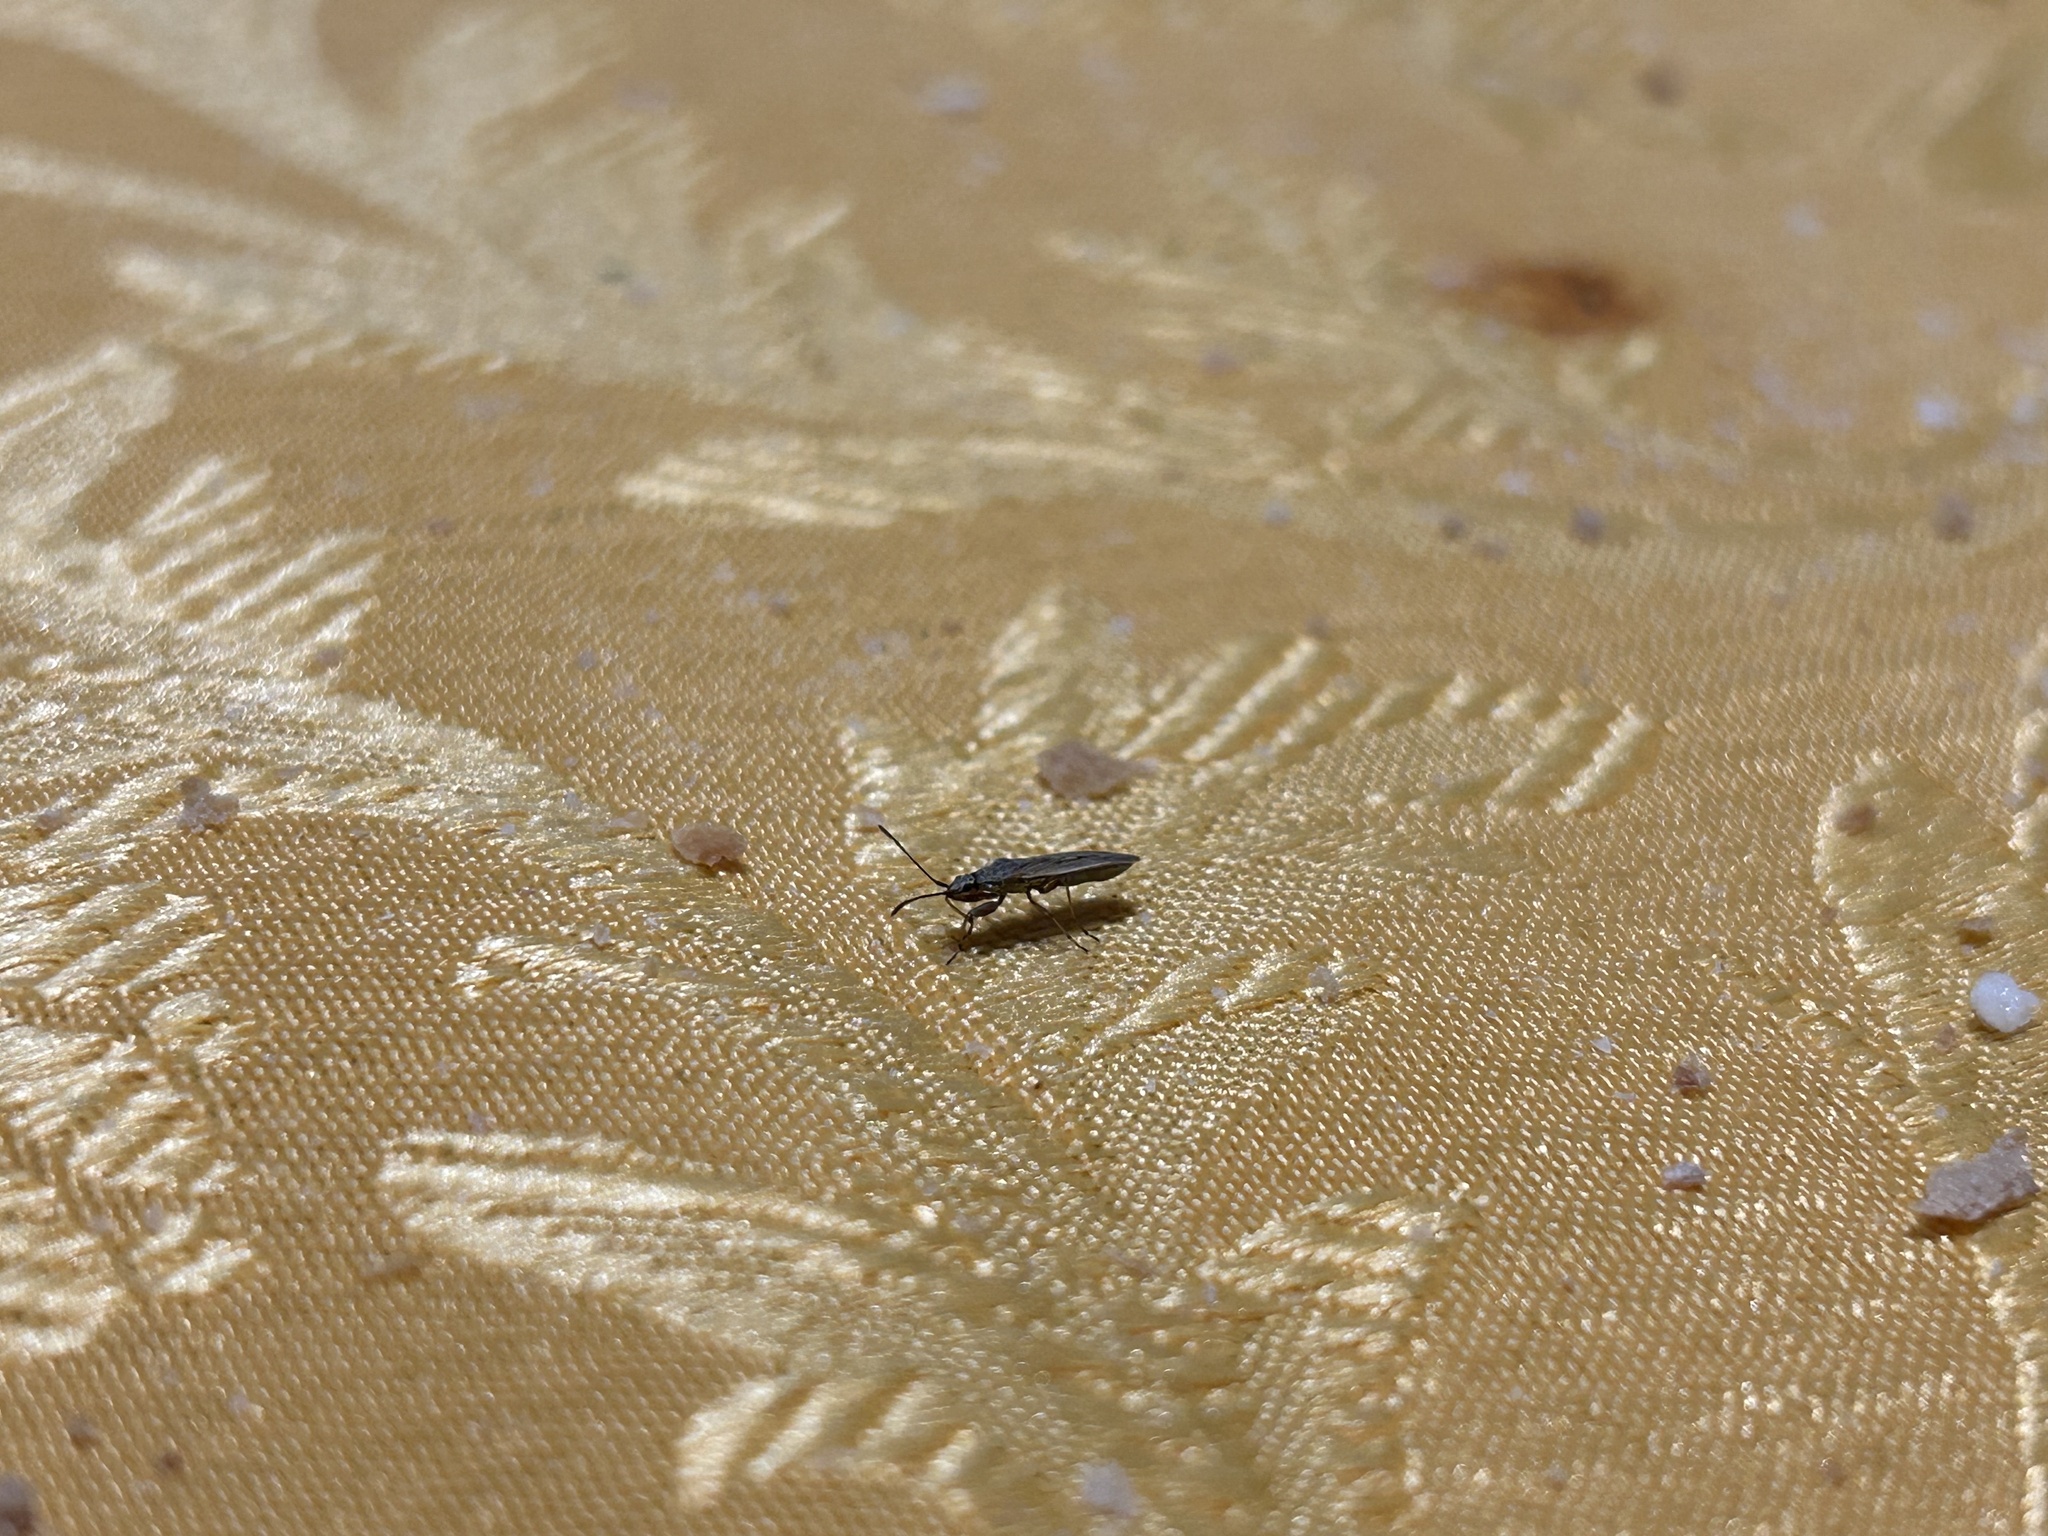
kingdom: Animalia
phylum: Arthropoda
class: Insecta
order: Hemiptera
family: Rhyparochromidae
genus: Paromius
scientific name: Paromius gracilis
